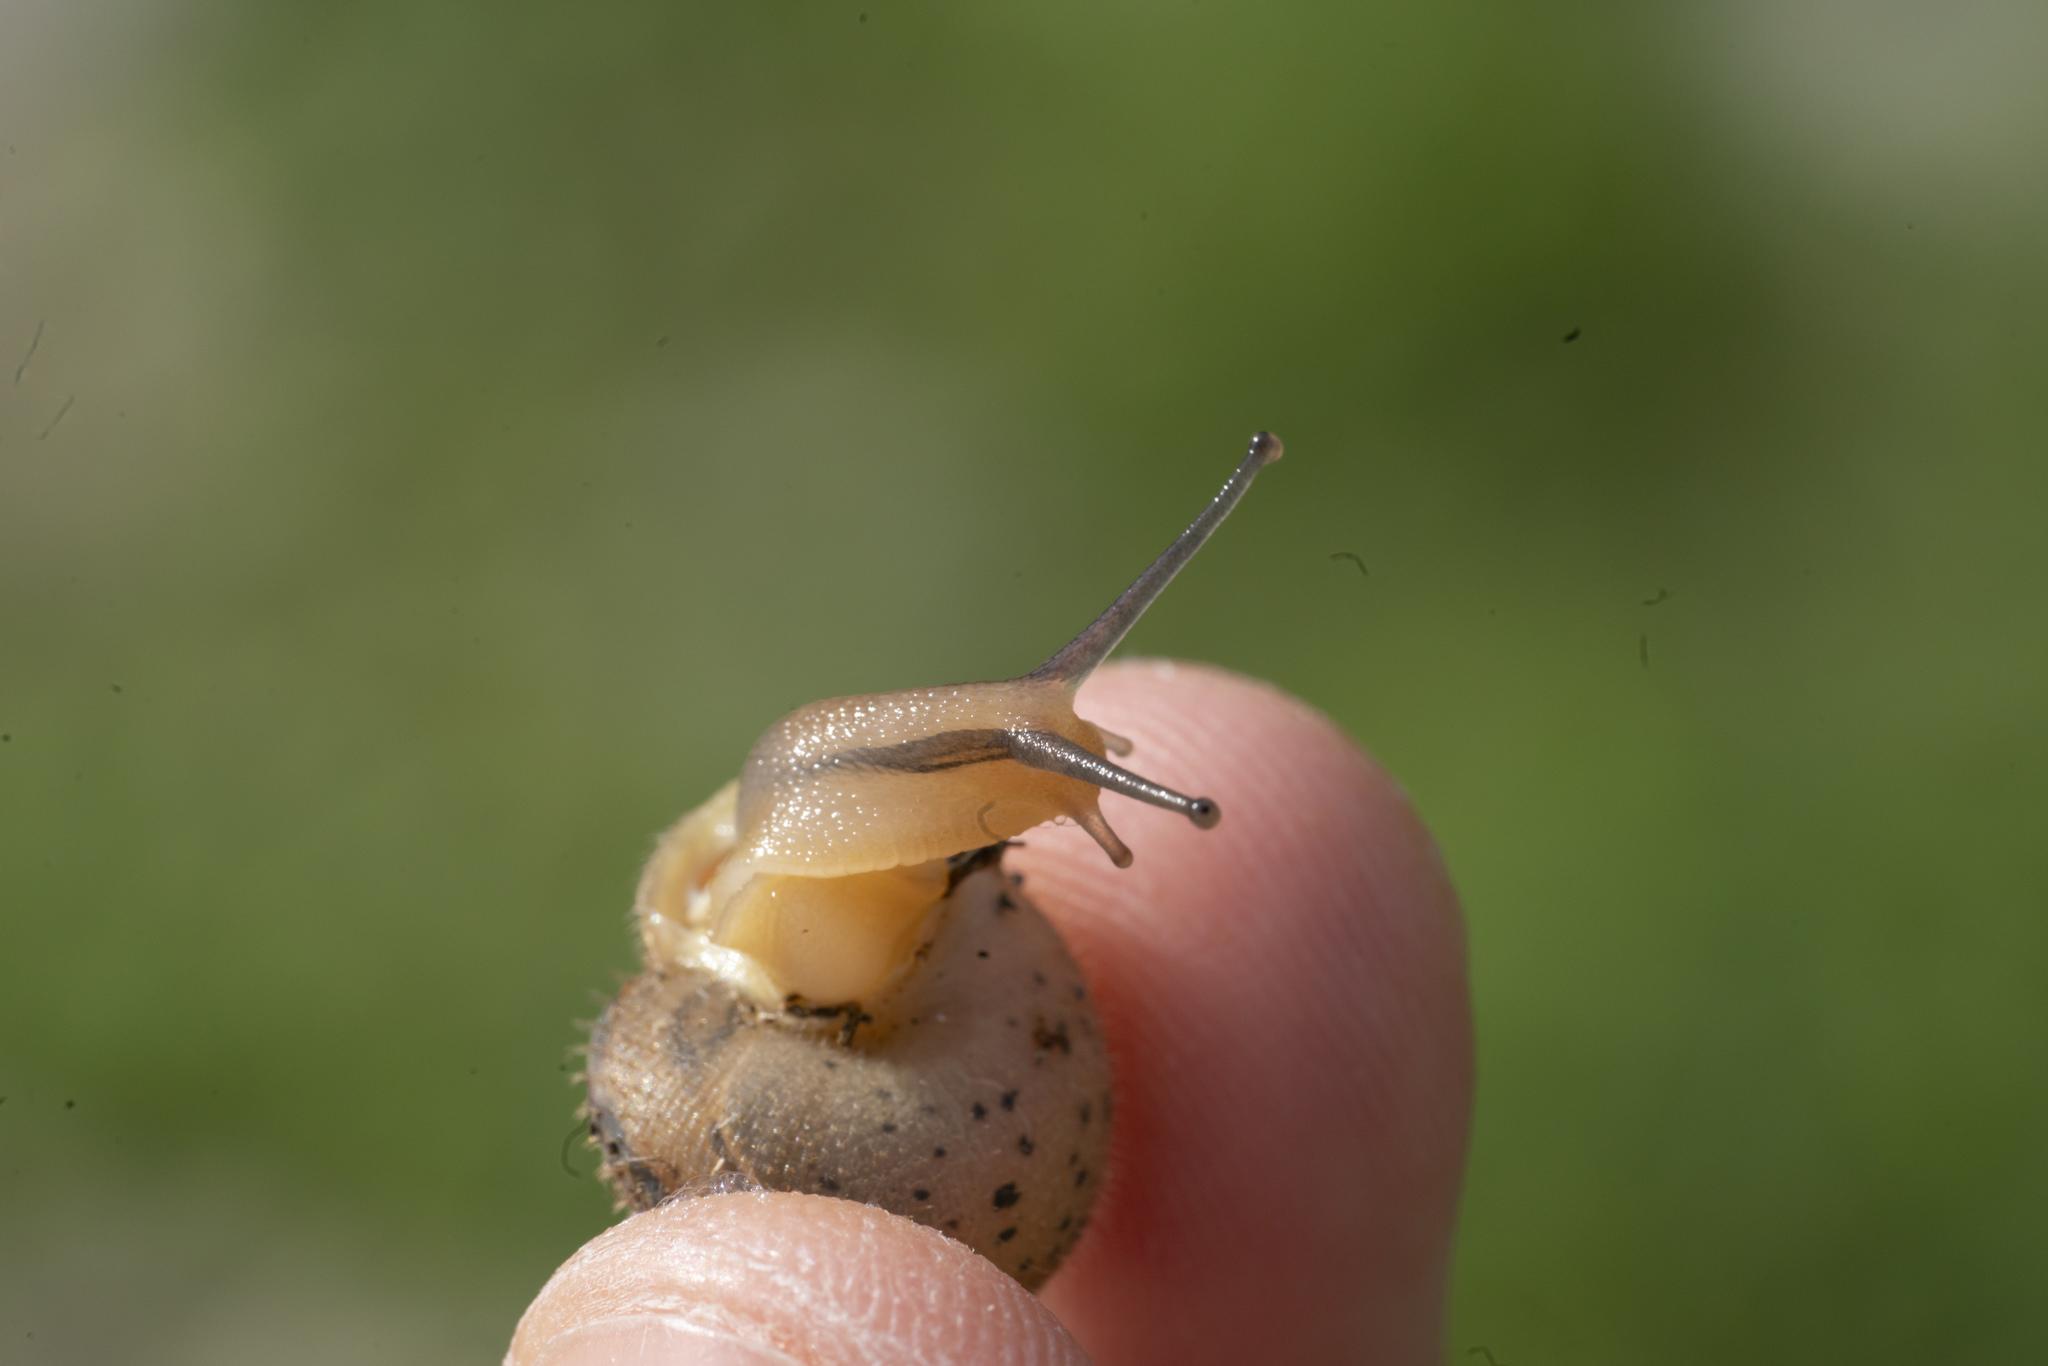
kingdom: Animalia
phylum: Mollusca
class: Gastropoda
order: Stylommatophora
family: Hygromiidae
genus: Metafruticicola
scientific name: Metafruticicola pellita
